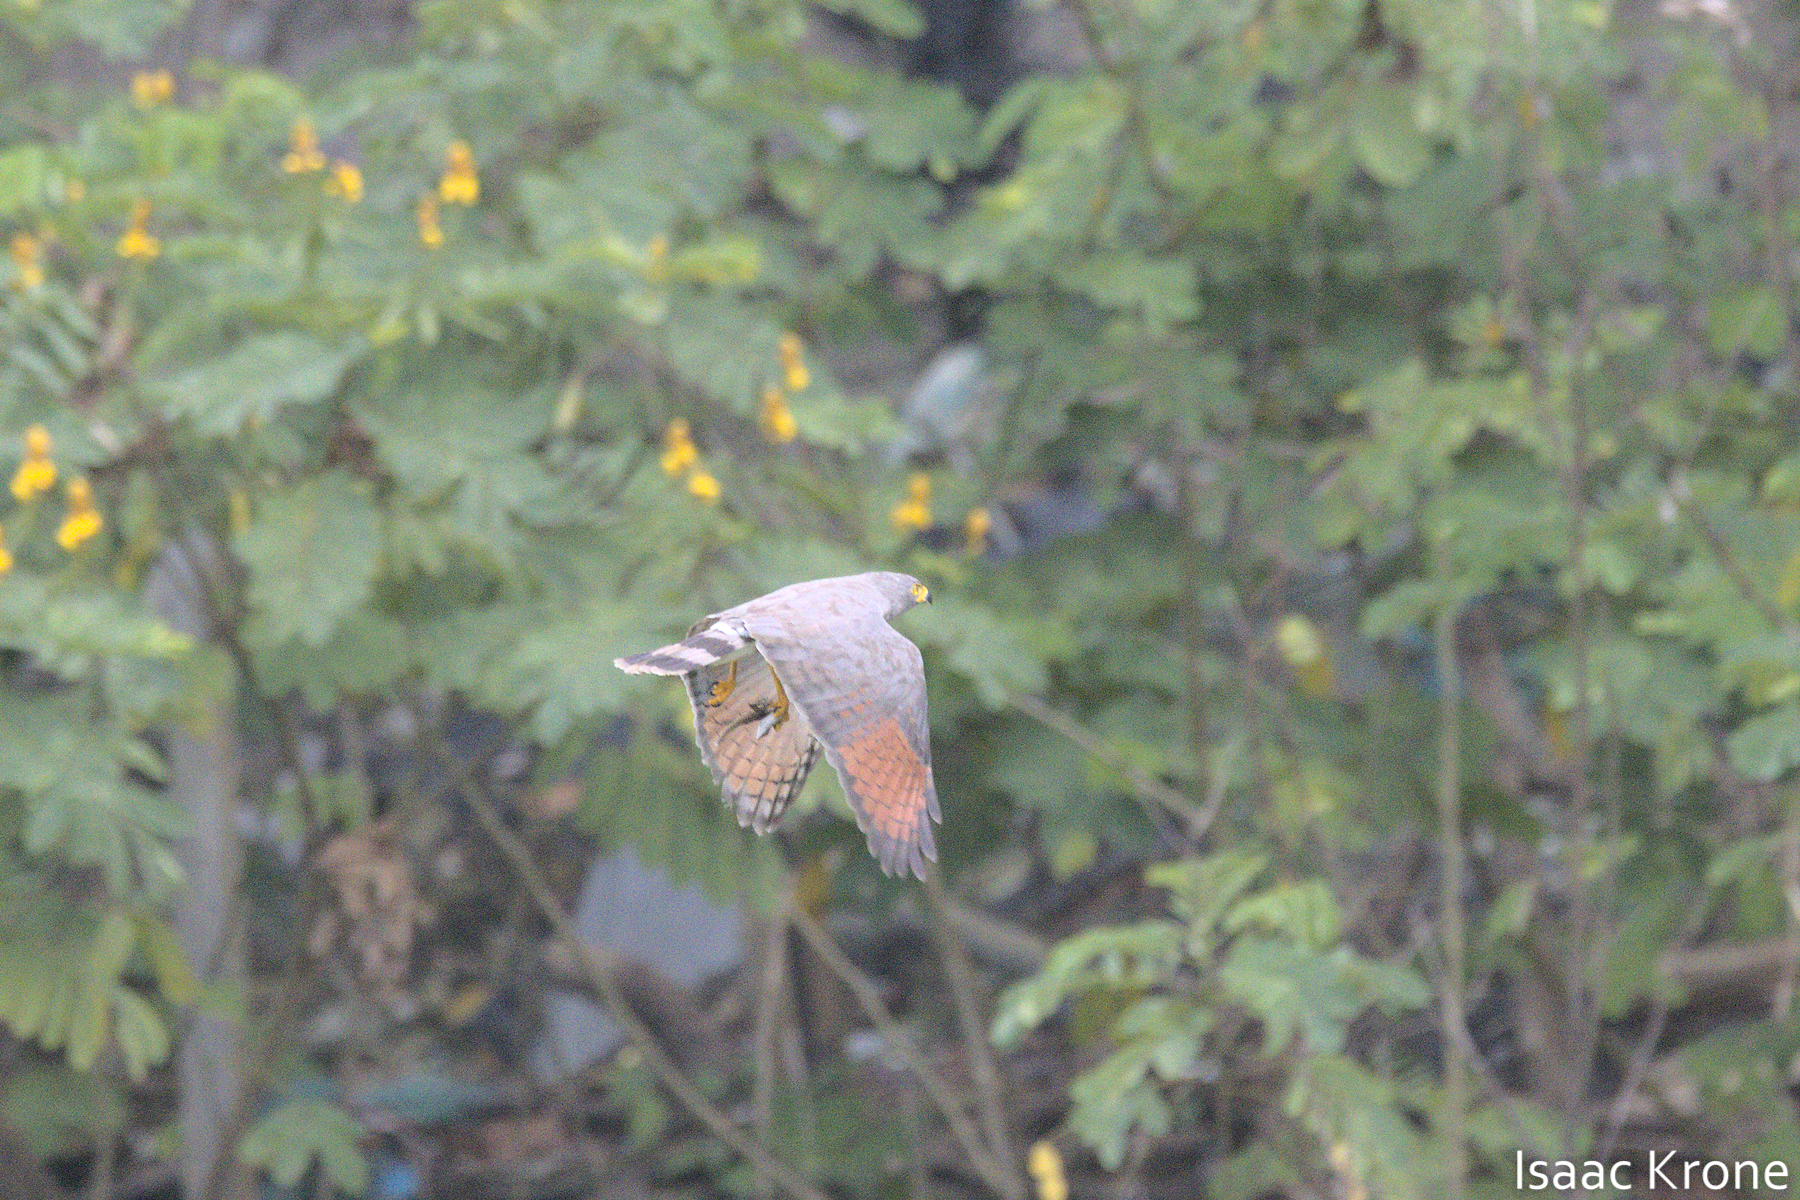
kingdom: Animalia
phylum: Chordata
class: Aves
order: Accipitriformes
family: Accipitridae
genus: Rupornis
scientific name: Rupornis magnirostris
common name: Roadside hawk
